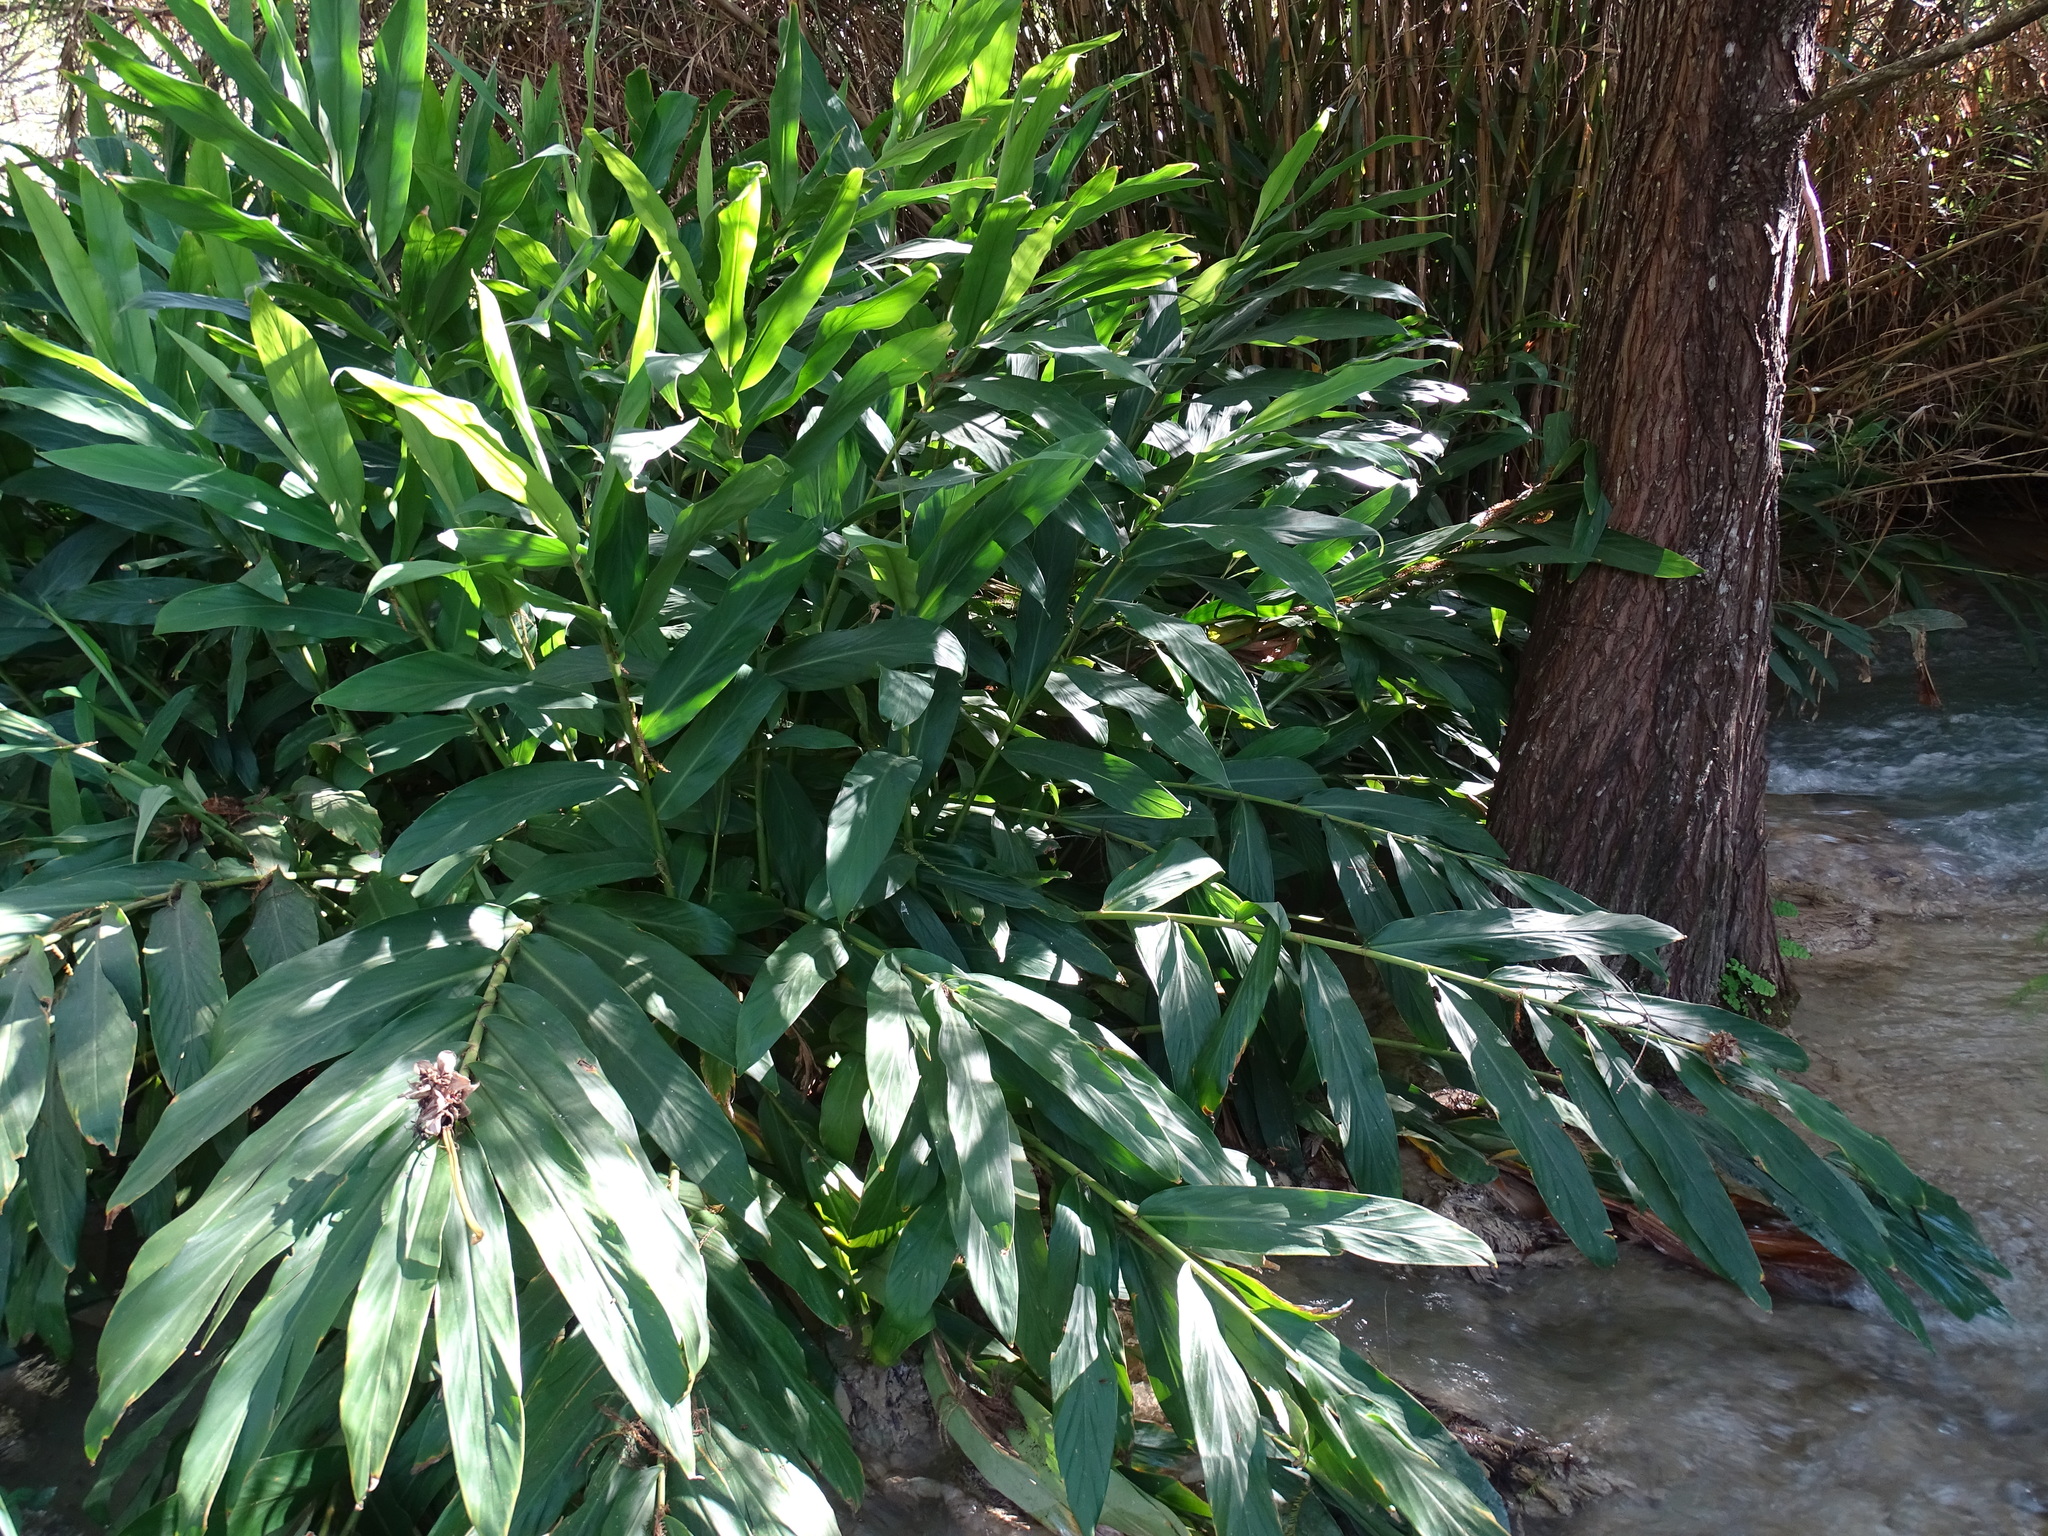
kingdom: Plantae
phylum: Tracheophyta
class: Liliopsida
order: Zingiberales
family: Zingiberaceae
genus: Hedychium
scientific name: Hedychium coronarium
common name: White garland-lily
